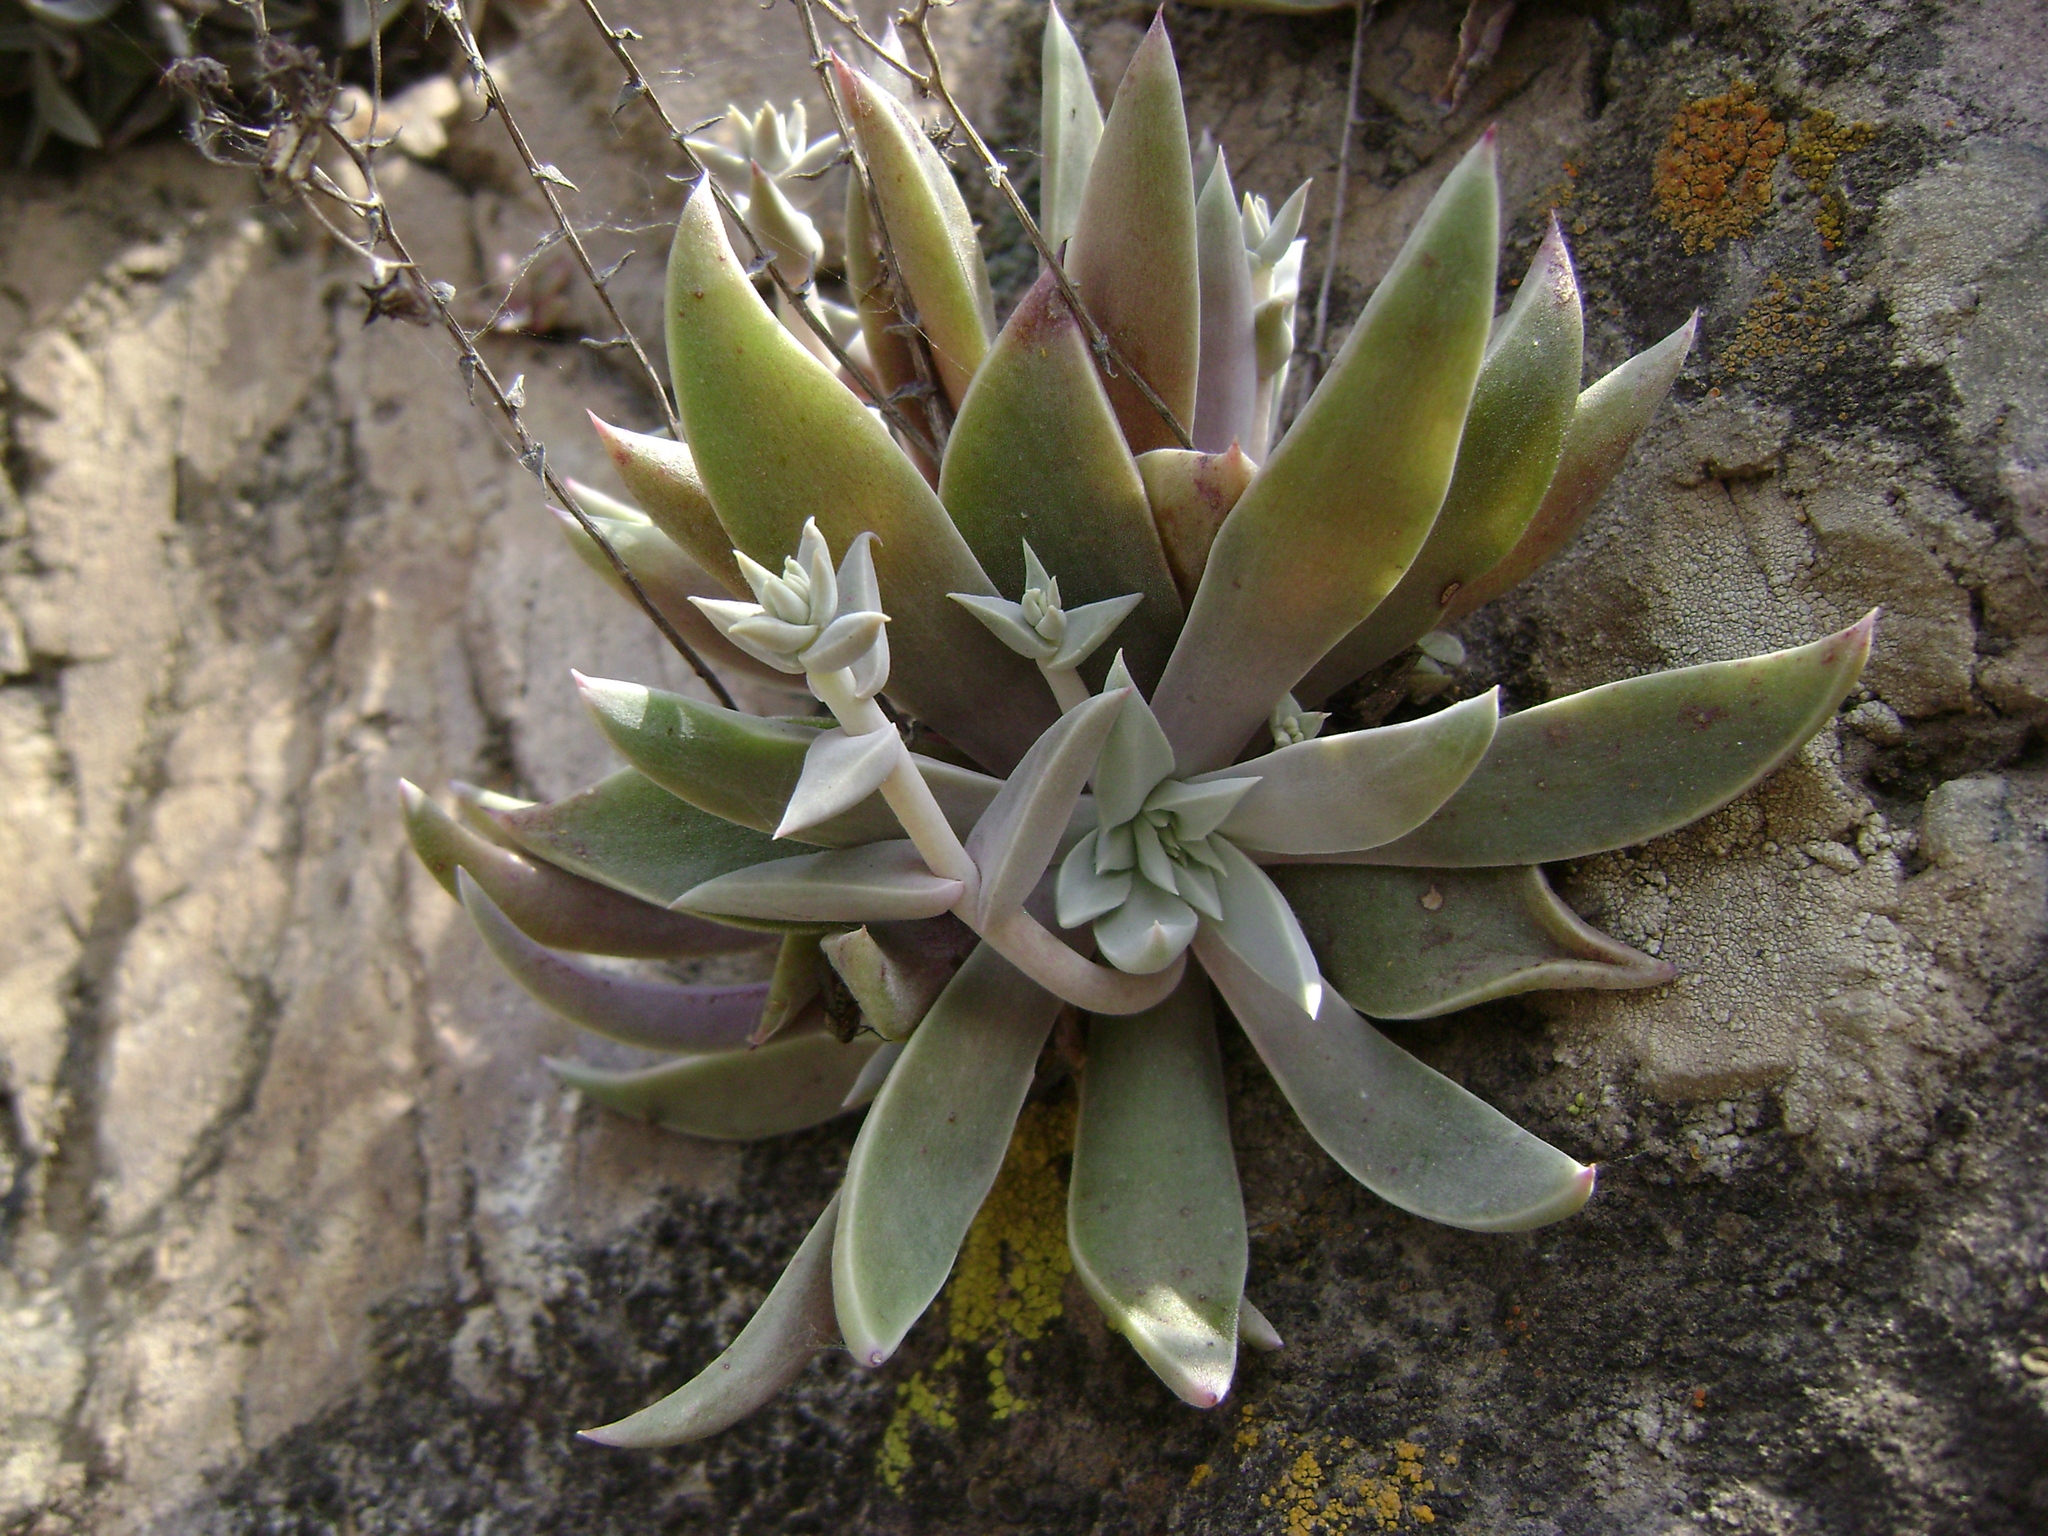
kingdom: Plantae
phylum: Tracheophyta
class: Magnoliopsida
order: Saxifragales
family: Crassulaceae
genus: Dudleya
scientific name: Dudleya verityi
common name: Verity dudleya
